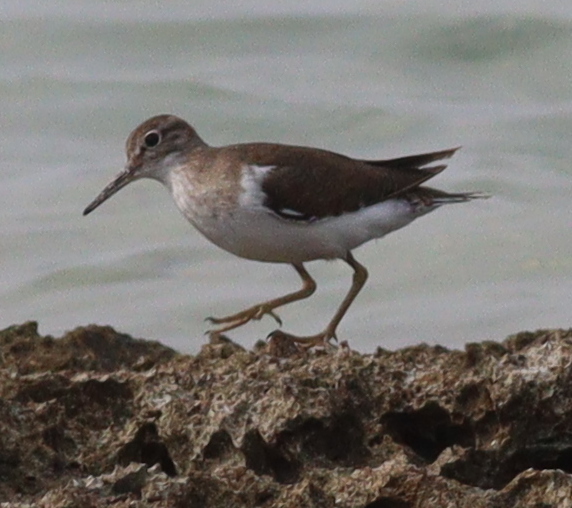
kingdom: Animalia
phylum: Chordata
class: Aves
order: Charadriiformes
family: Scolopacidae
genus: Actitis
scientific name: Actitis hypoleucos
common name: Common sandpiper
